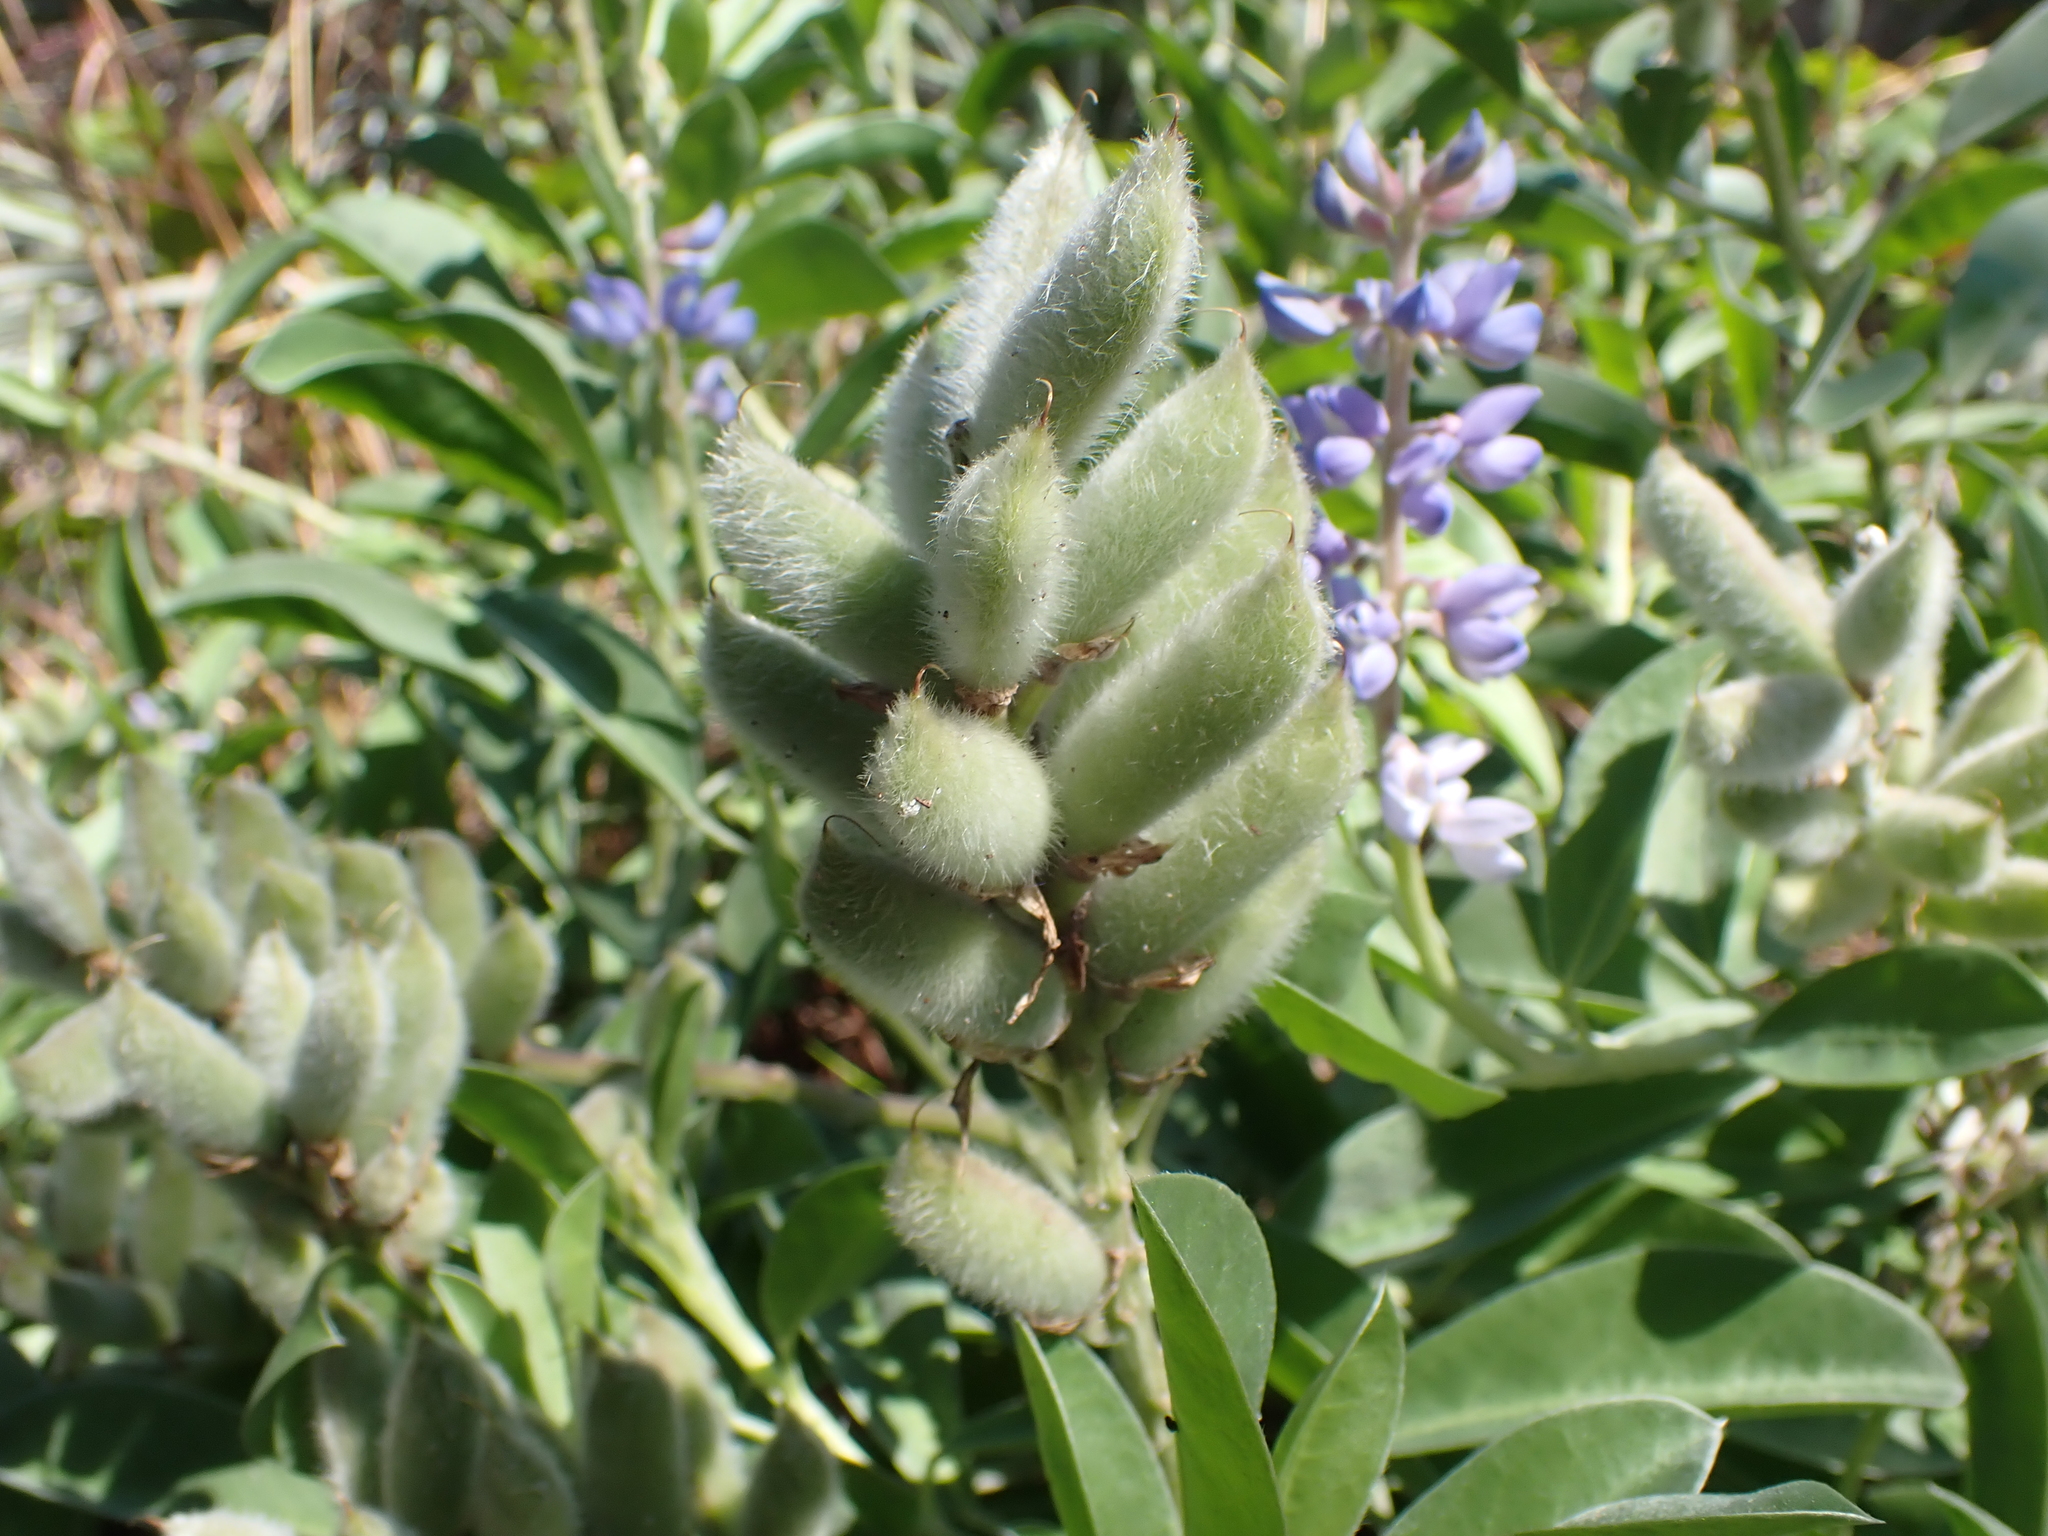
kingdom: Plantae
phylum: Tracheophyta
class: Magnoliopsida
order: Fabales
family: Fabaceae
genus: Lupinus
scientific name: Lupinus
